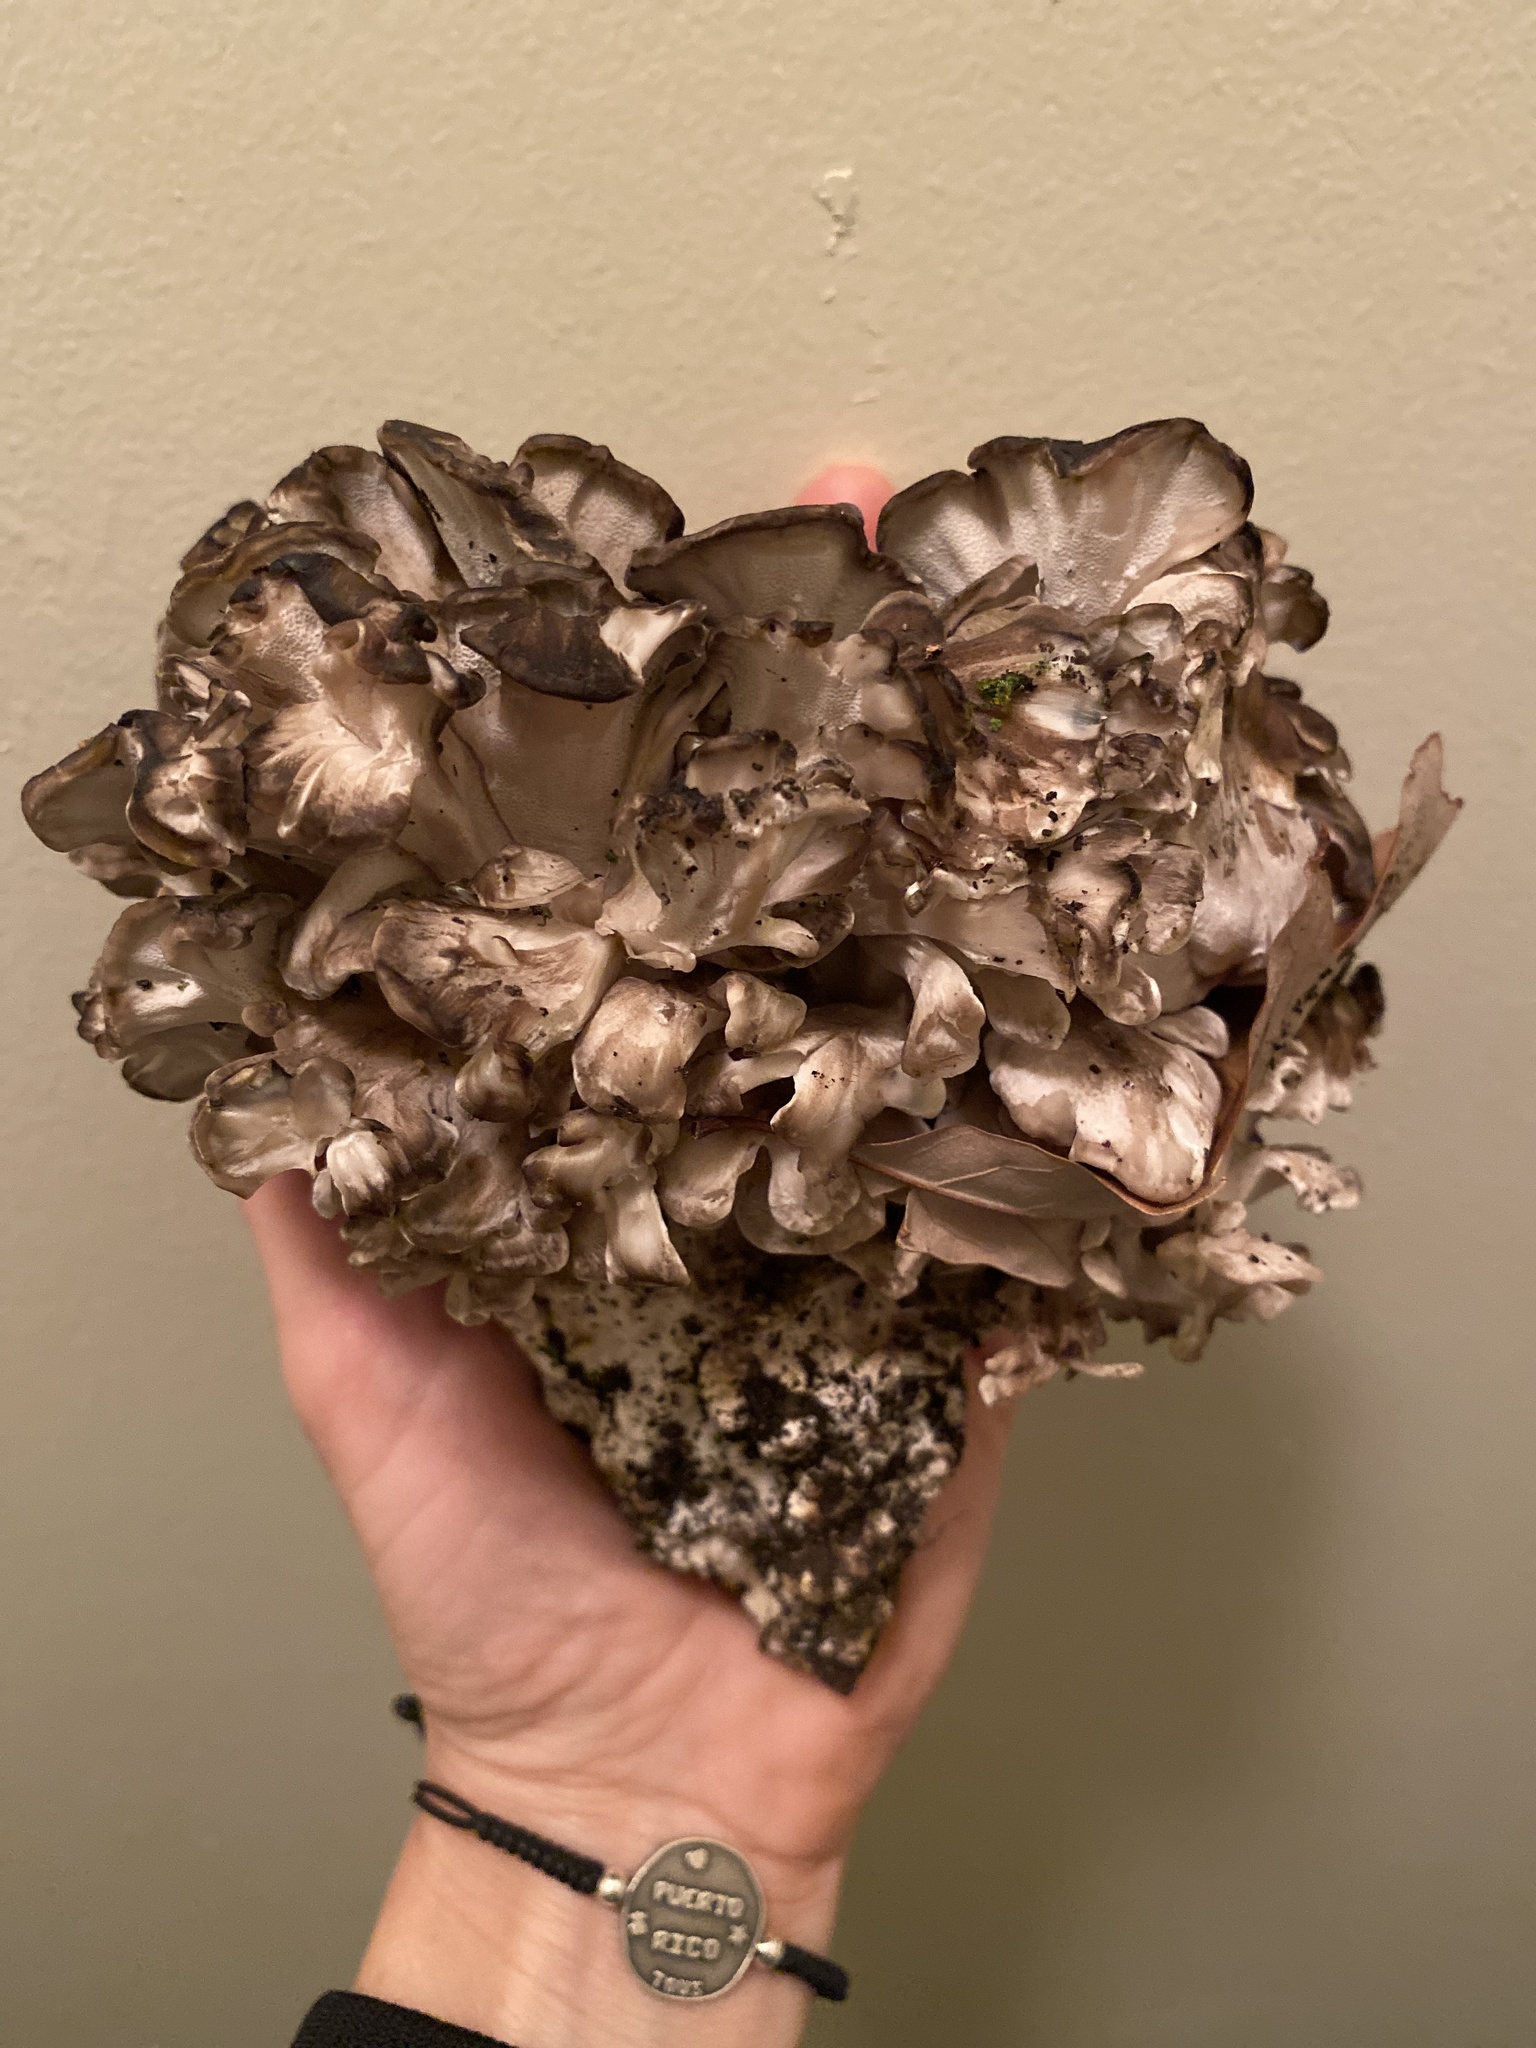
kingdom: Fungi
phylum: Basidiomycota
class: Agaricomycetes
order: Polyporales
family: Grifolaceae
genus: Grifola
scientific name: Grifola frondosa
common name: Hen of the woods
